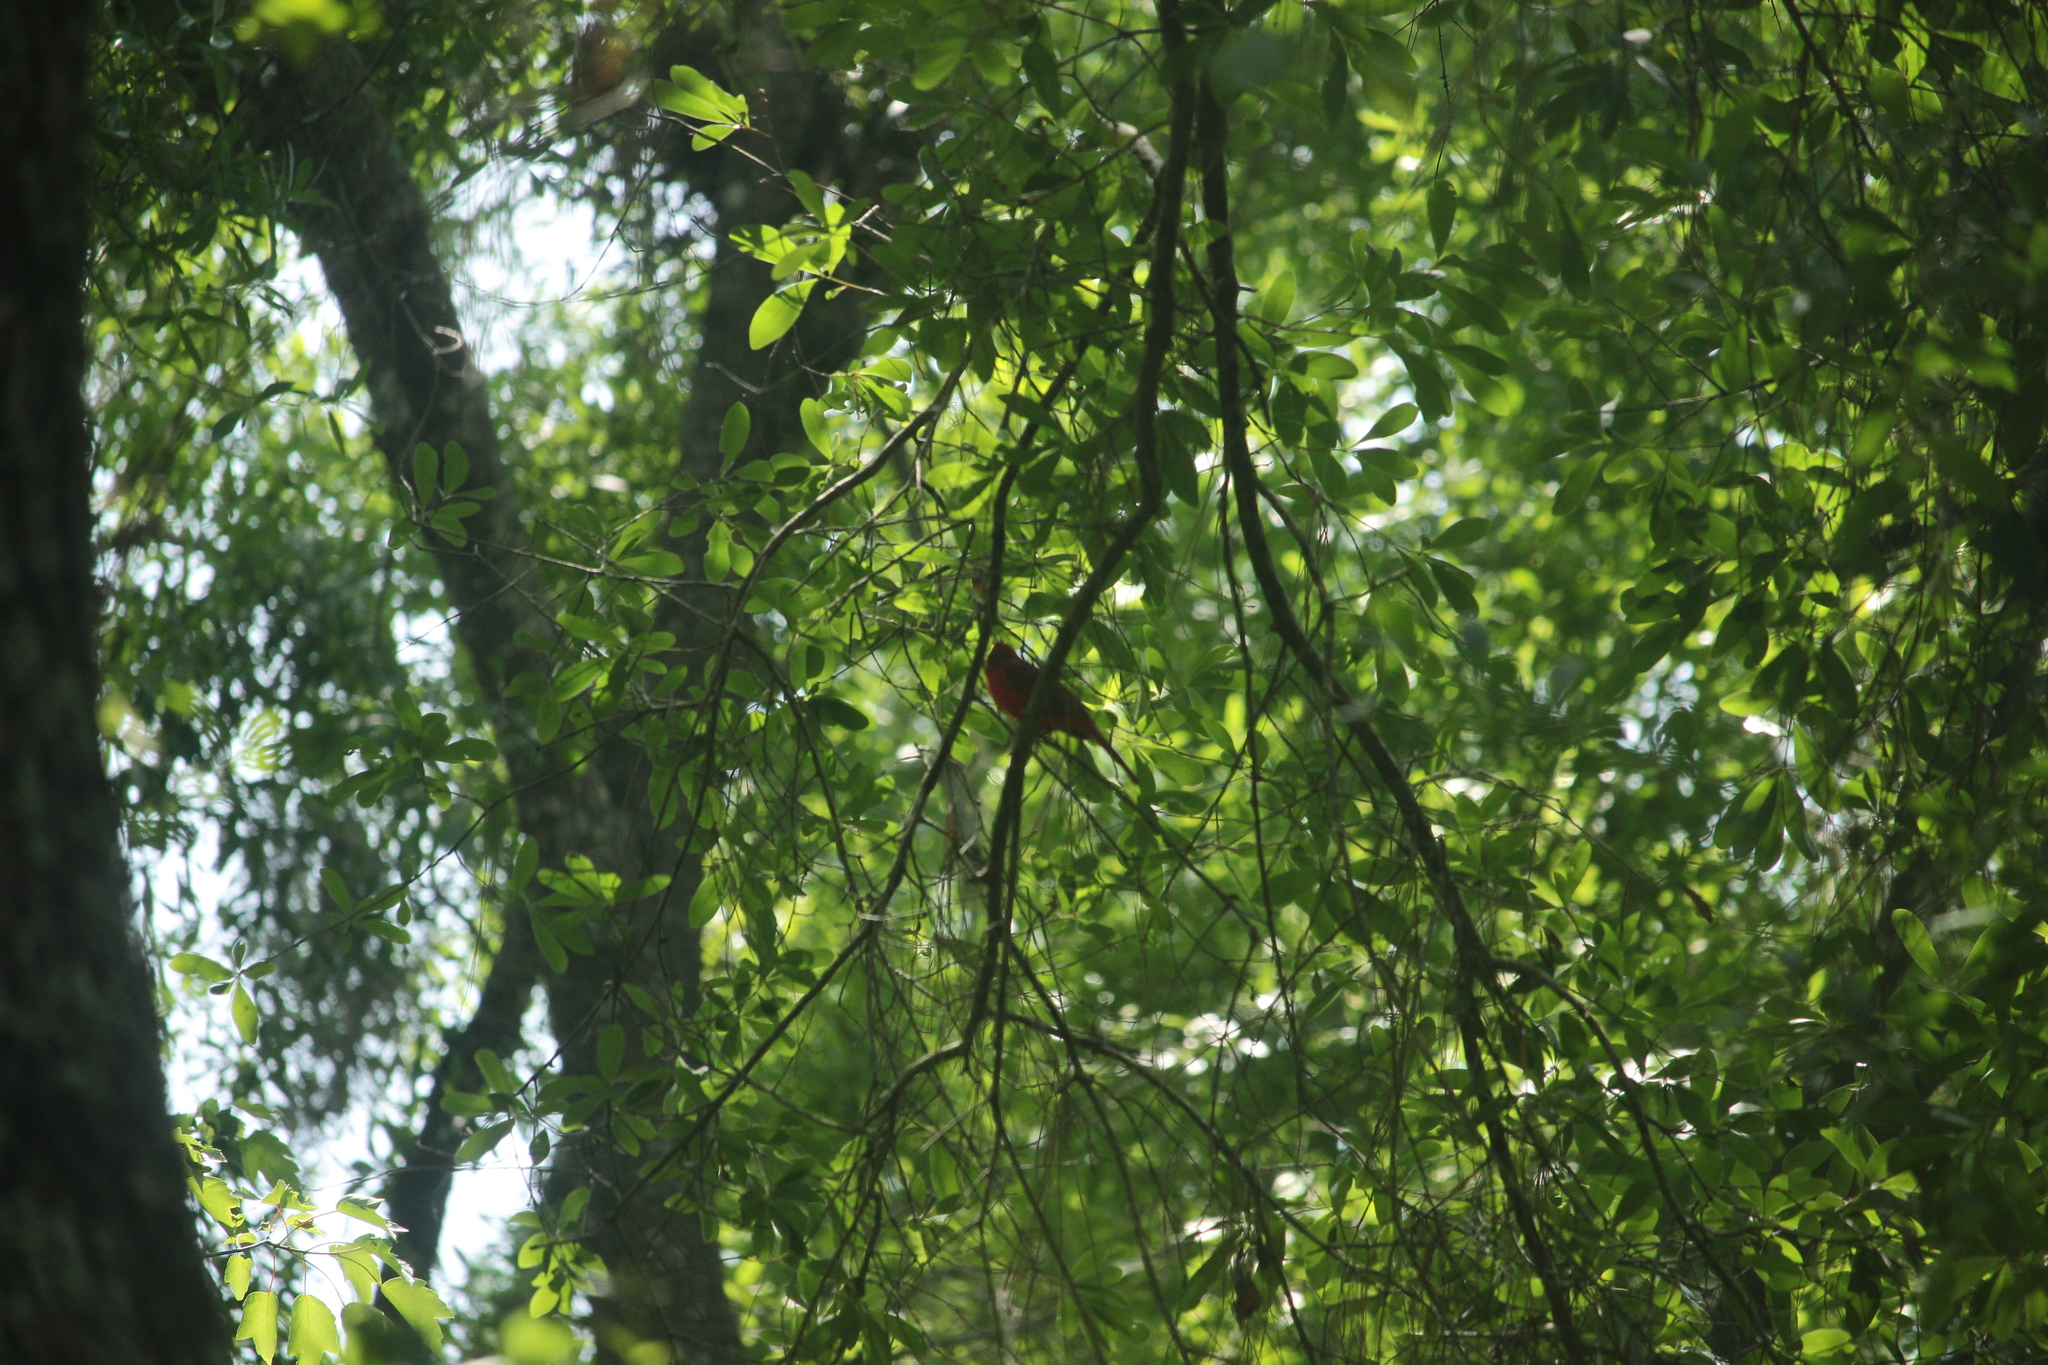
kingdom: Animalia
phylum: Chordata
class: Aves
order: Passeriformes
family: Cardinalidae
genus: Cardinalis
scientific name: Cardinalis cardinalis
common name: Northern cardinal
